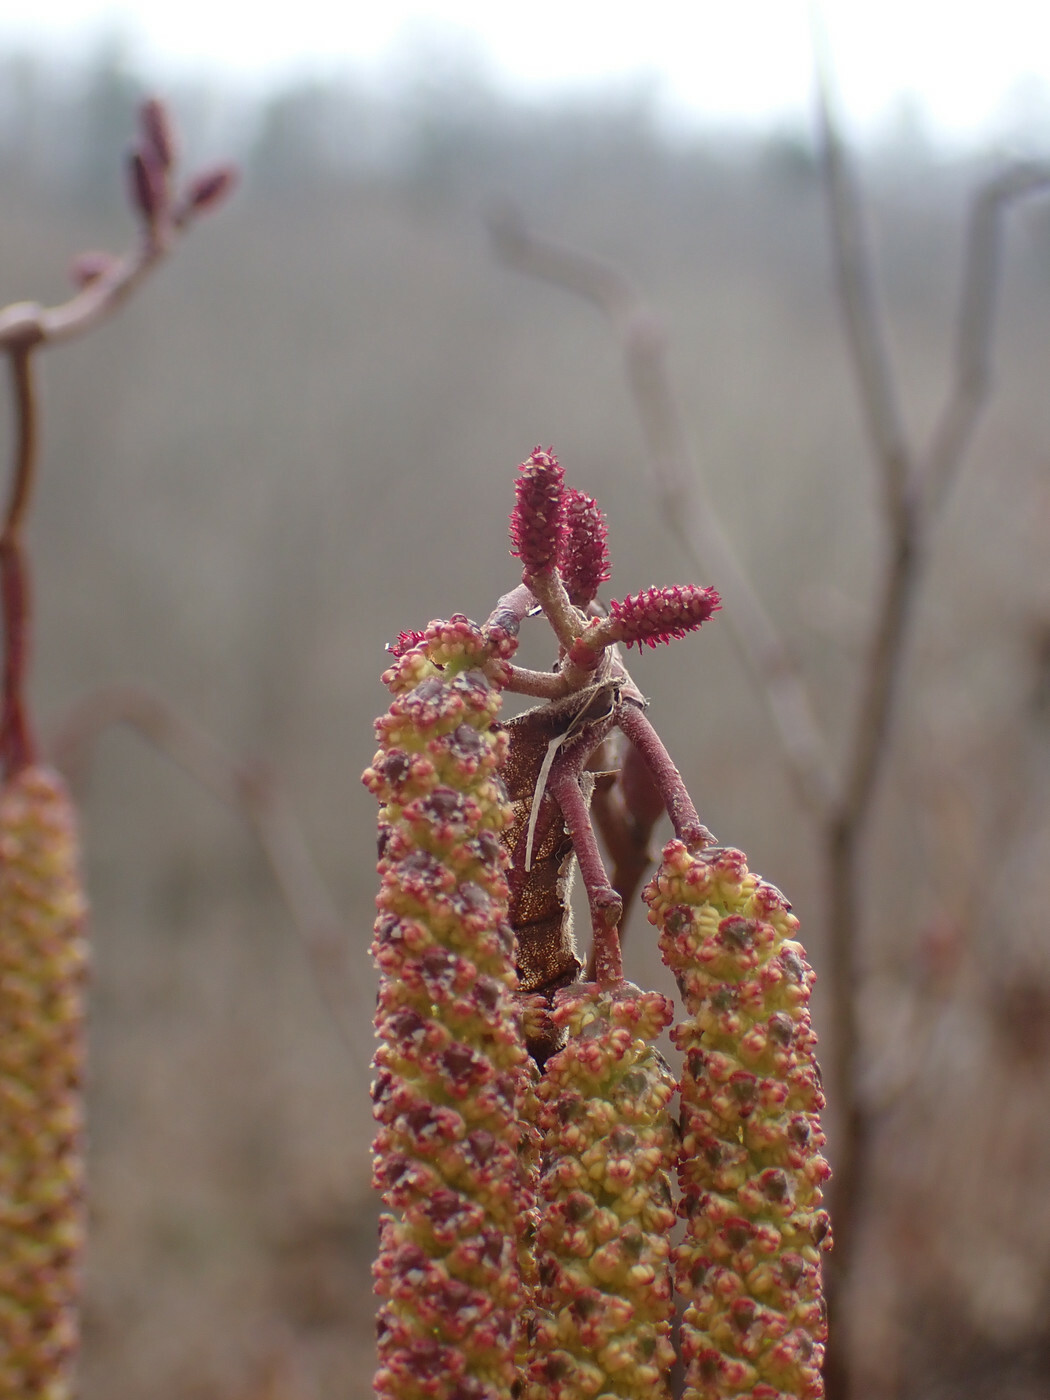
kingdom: Plantae
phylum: Tracheophyta
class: Magnoliopsida
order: Fagales
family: Betulaceae
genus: Alnus
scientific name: Alnus serrulata
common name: Hazel alder
